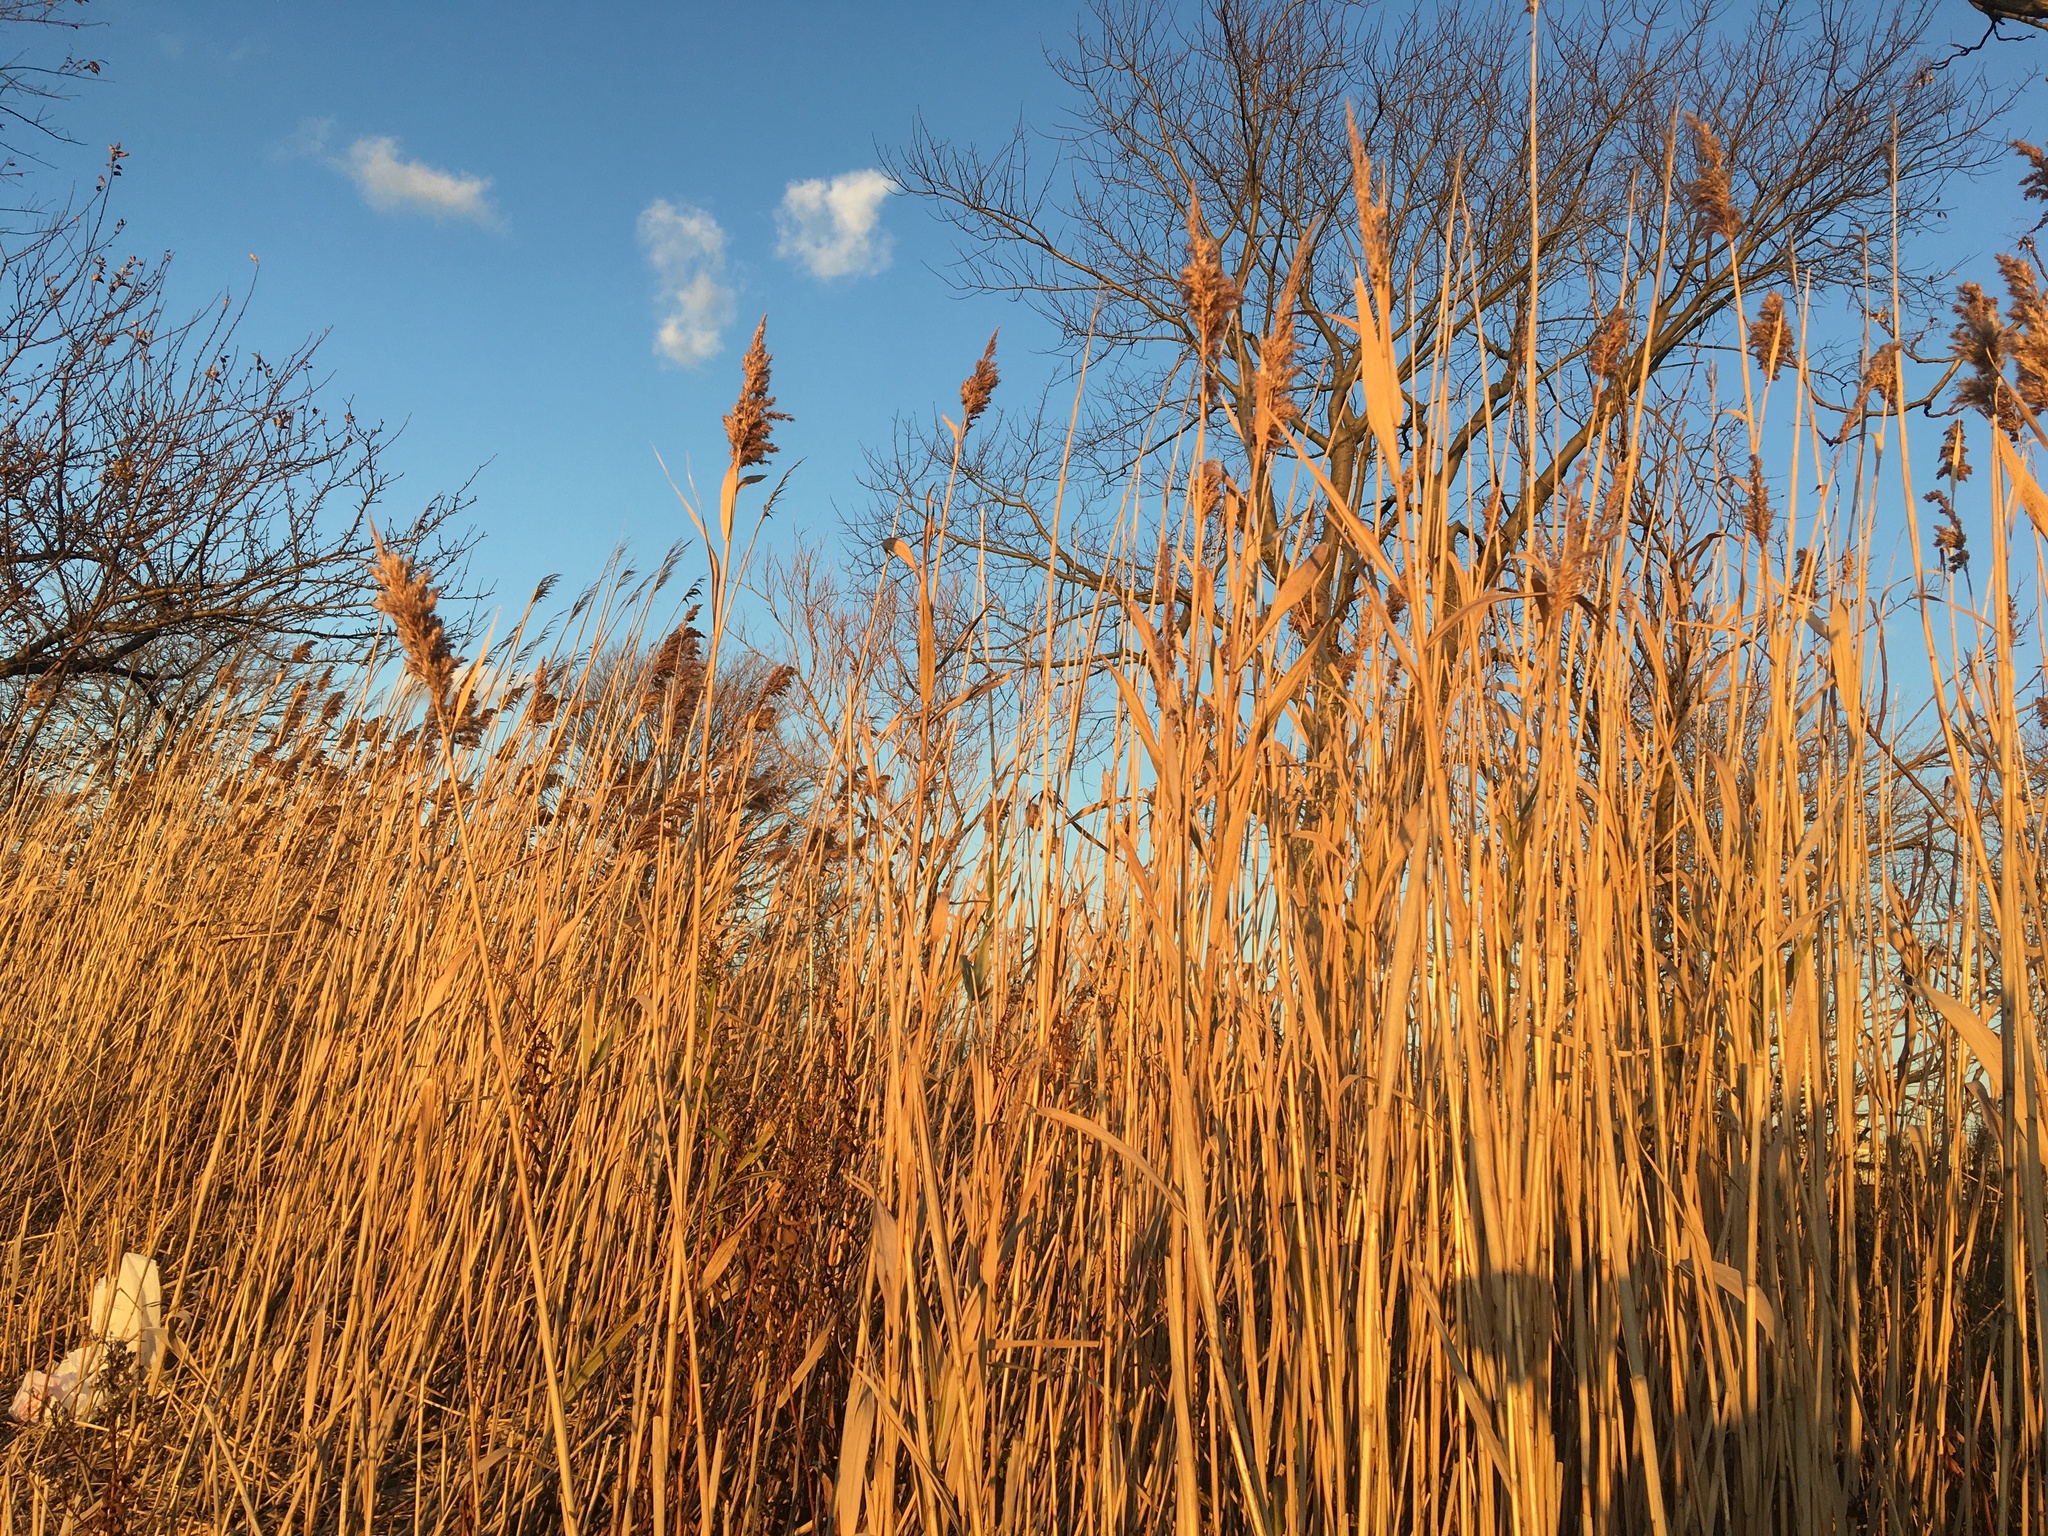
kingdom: Plantae
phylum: Tracheophyta
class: Liliopsida
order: Poales
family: Poaceae
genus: Phragmites
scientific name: Phragmites australis
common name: Common reed
